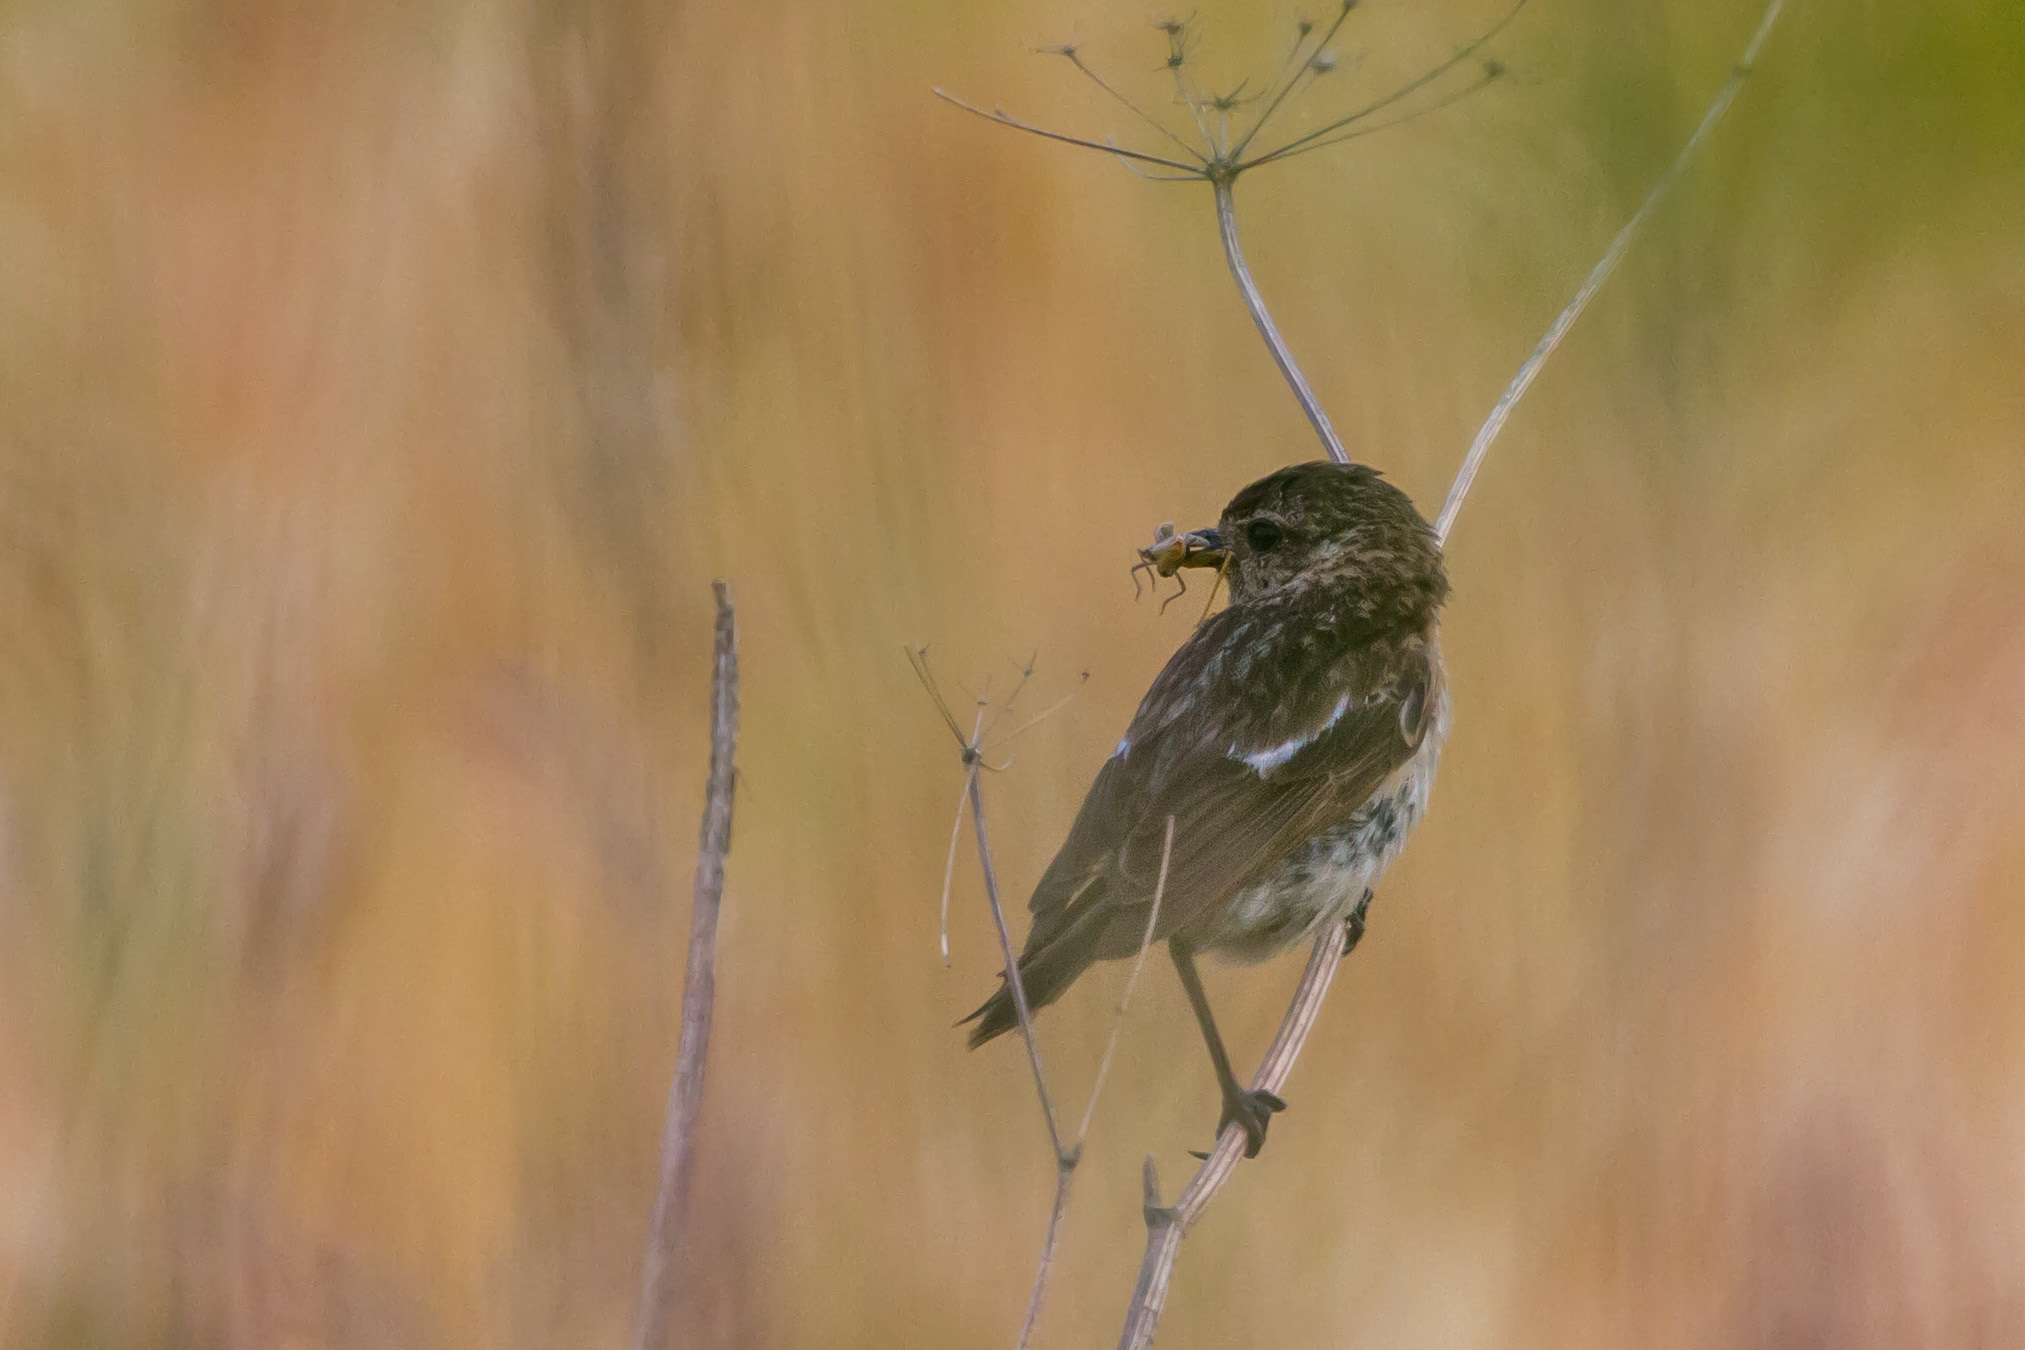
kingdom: Animalia
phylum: Chordata
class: Aves
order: Passeriformes
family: Muscicapidae
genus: Saxicola
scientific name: Saxicola maurus
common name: Siberian stonechat
